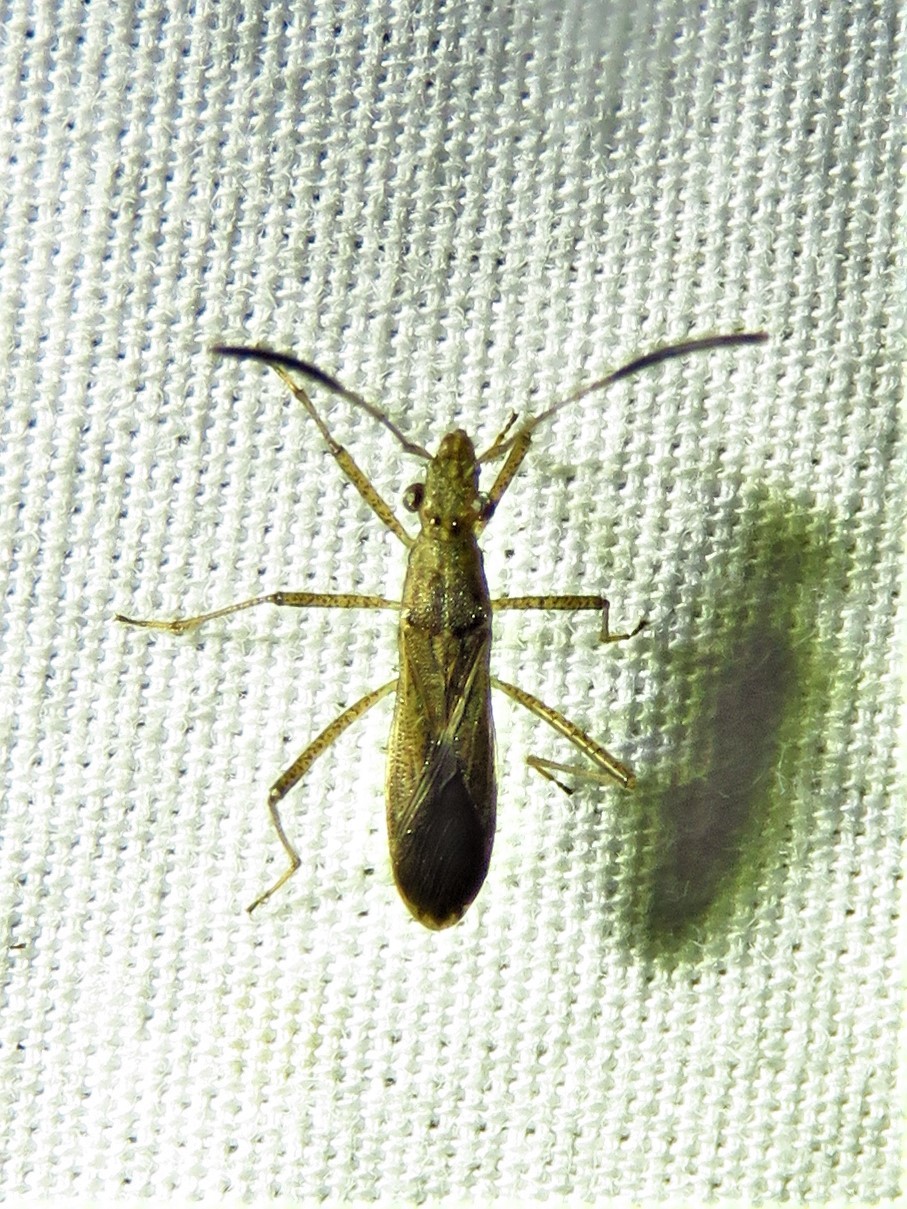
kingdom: Animalia
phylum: Arthropoda
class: Insecta
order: Hemiptera
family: Alydidae
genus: Esperanza
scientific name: Esperanza texana
